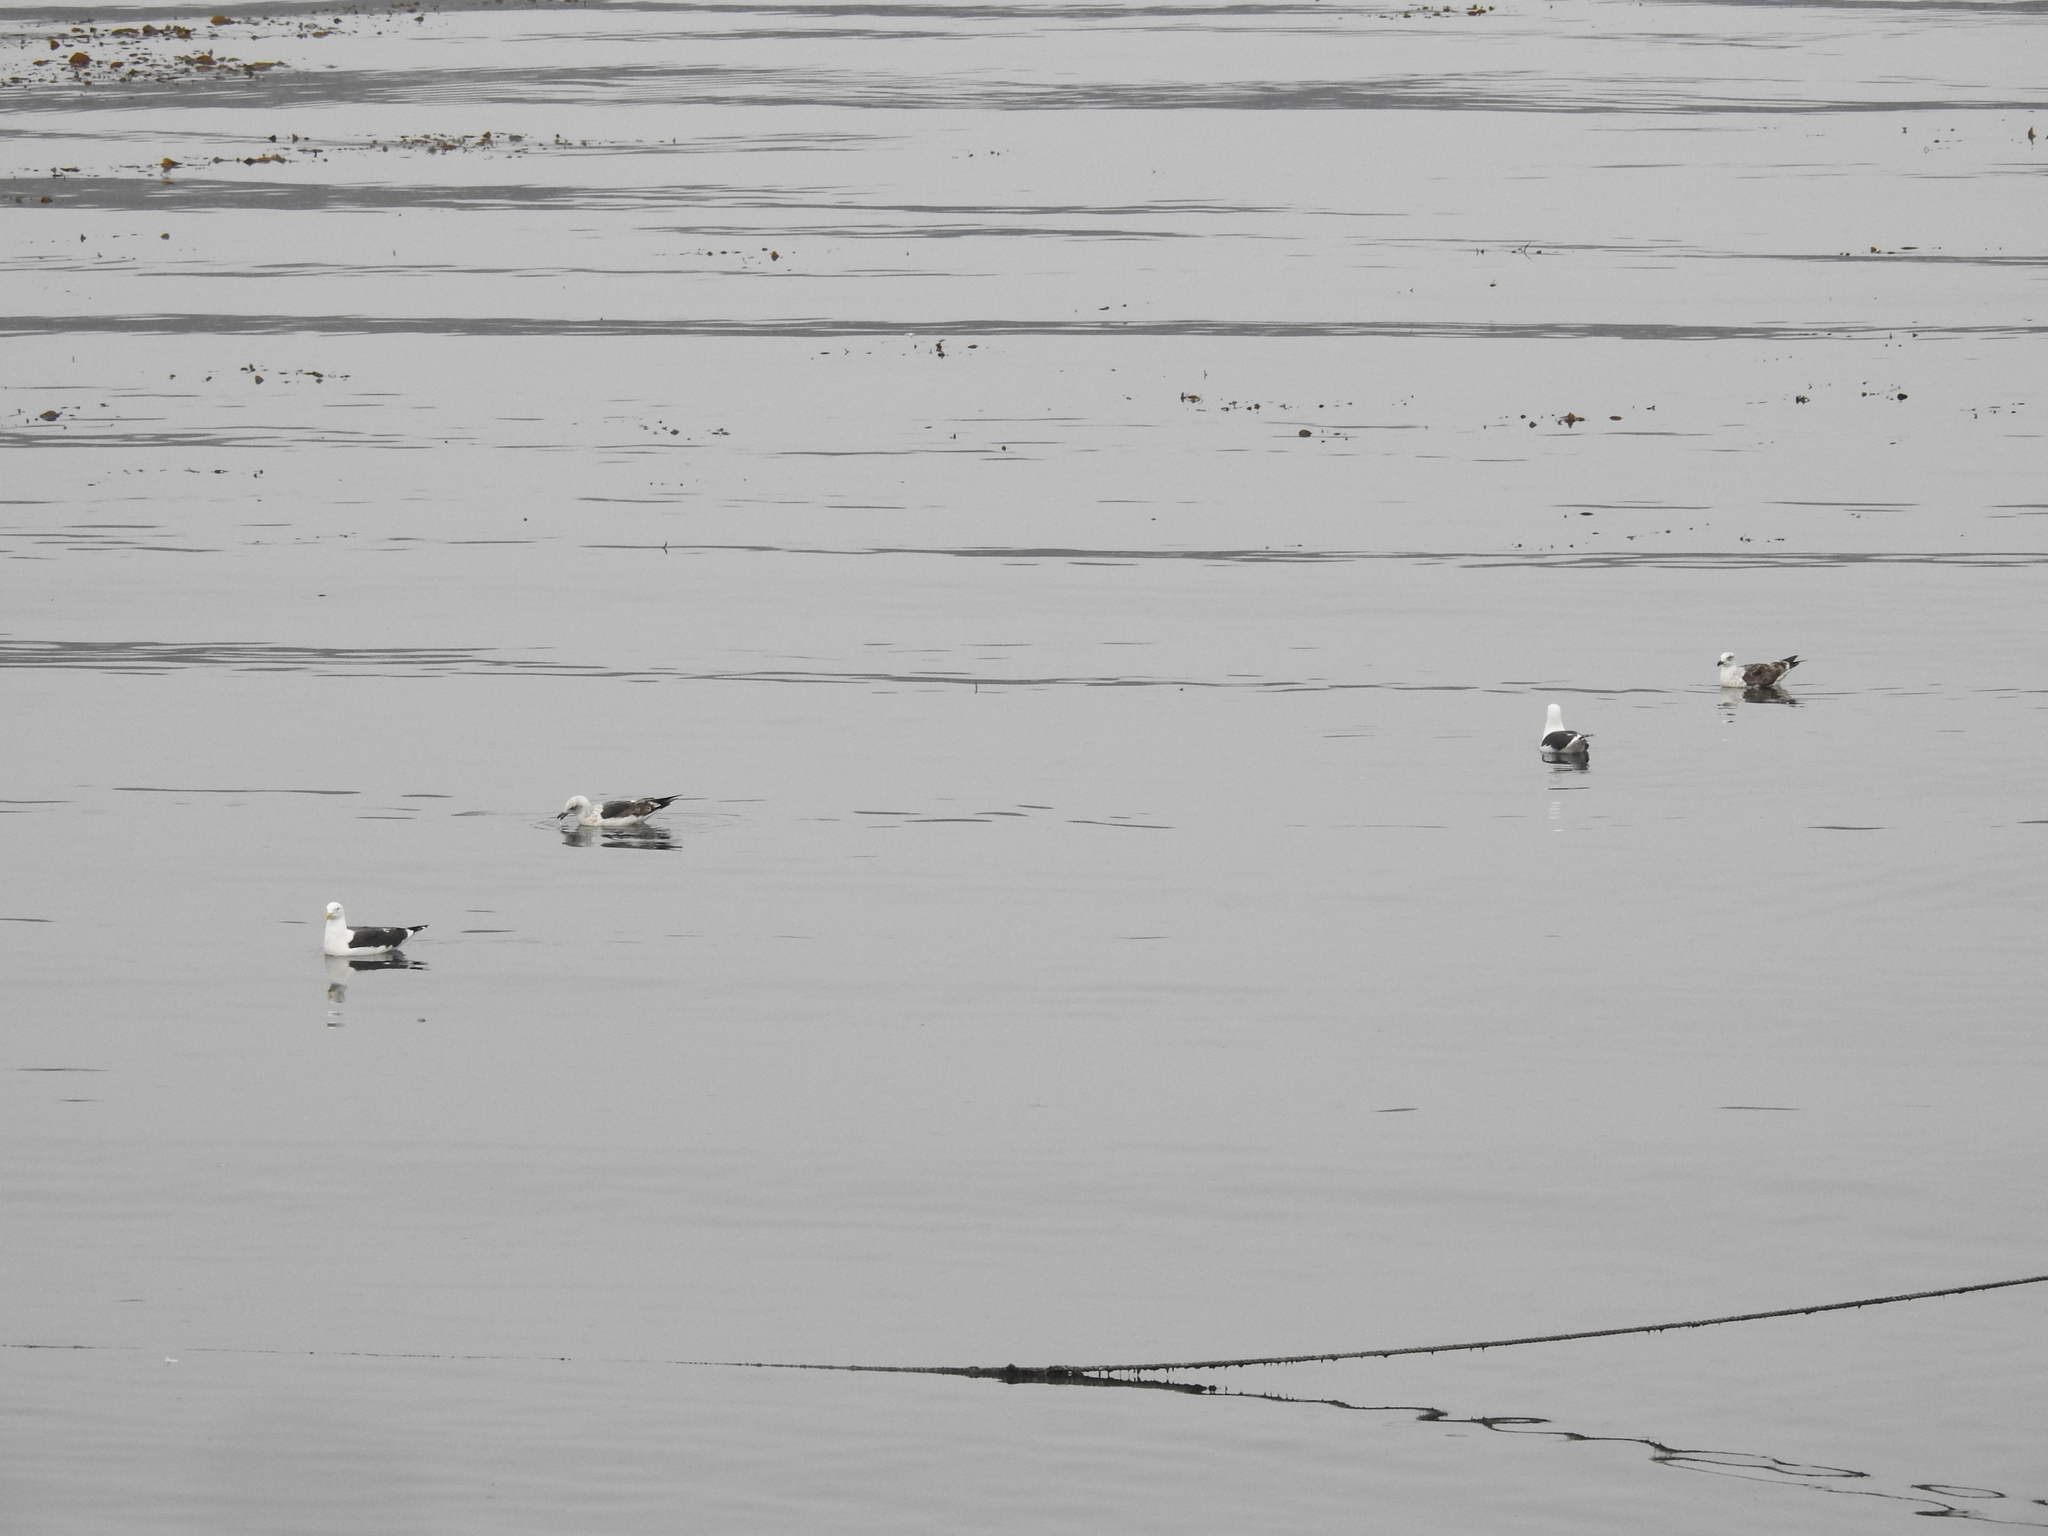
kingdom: Animalia
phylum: Chordata
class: Aves
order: Charadriiformes
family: Laridae
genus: Larus
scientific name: Larus dominicanus
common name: Kelp gull
